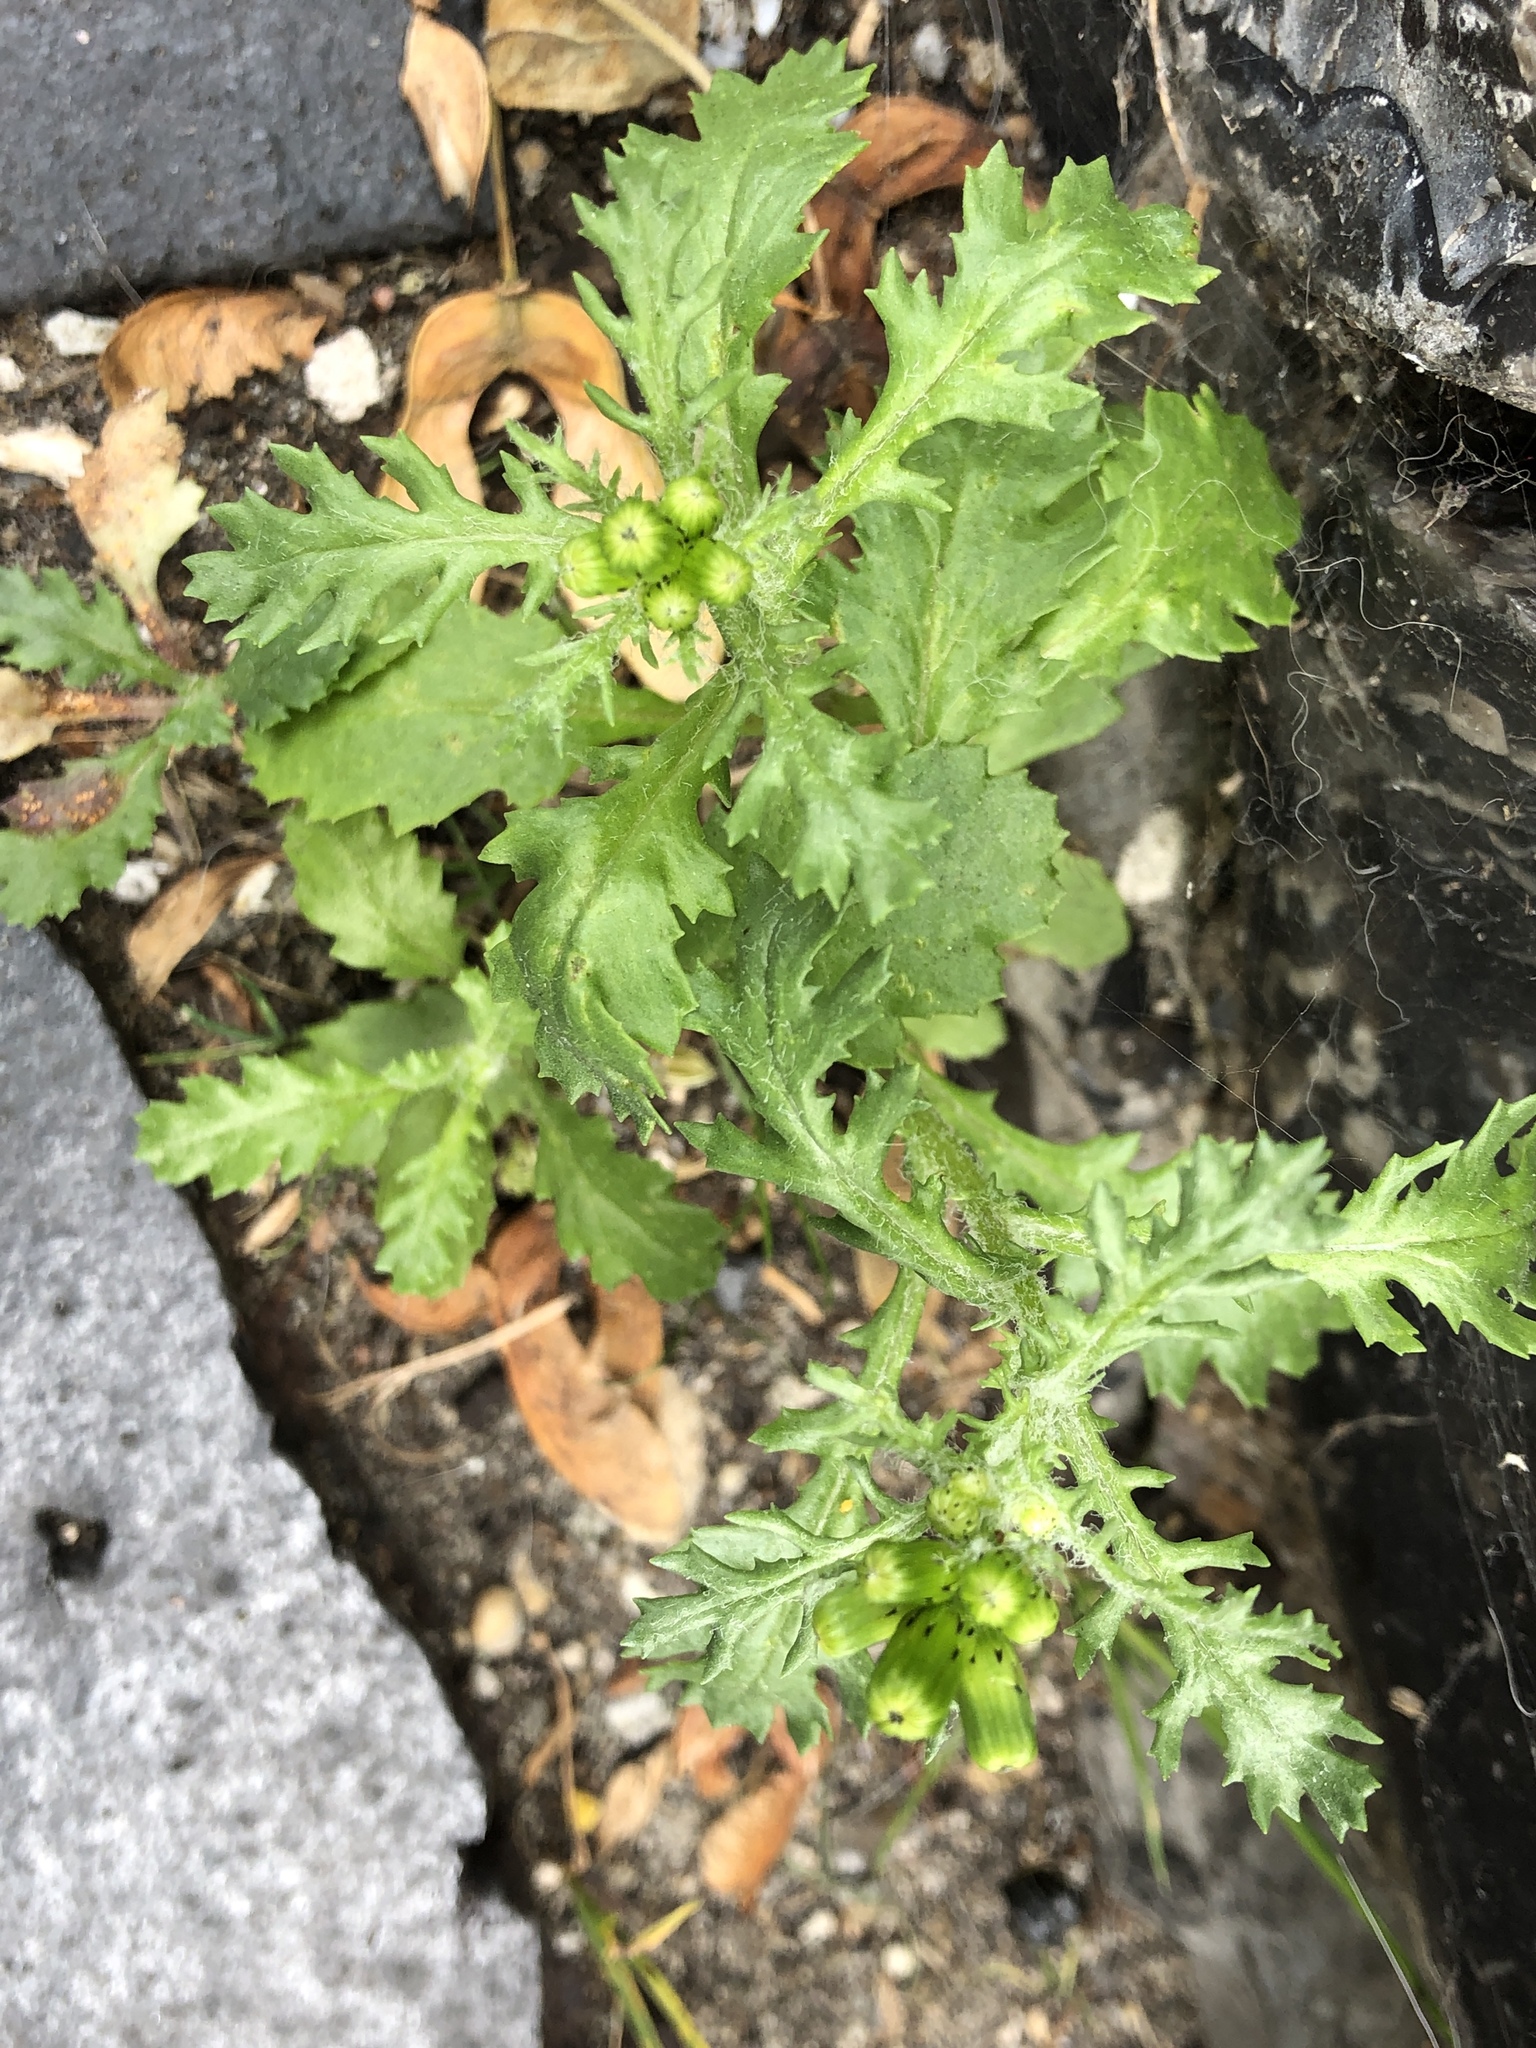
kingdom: Plantae
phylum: Tracheophyta
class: Magnoliopsida
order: Asterales
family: Asteraceae
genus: Senecio
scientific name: Senecio vulgaris
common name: Old-man-in-the-spring
